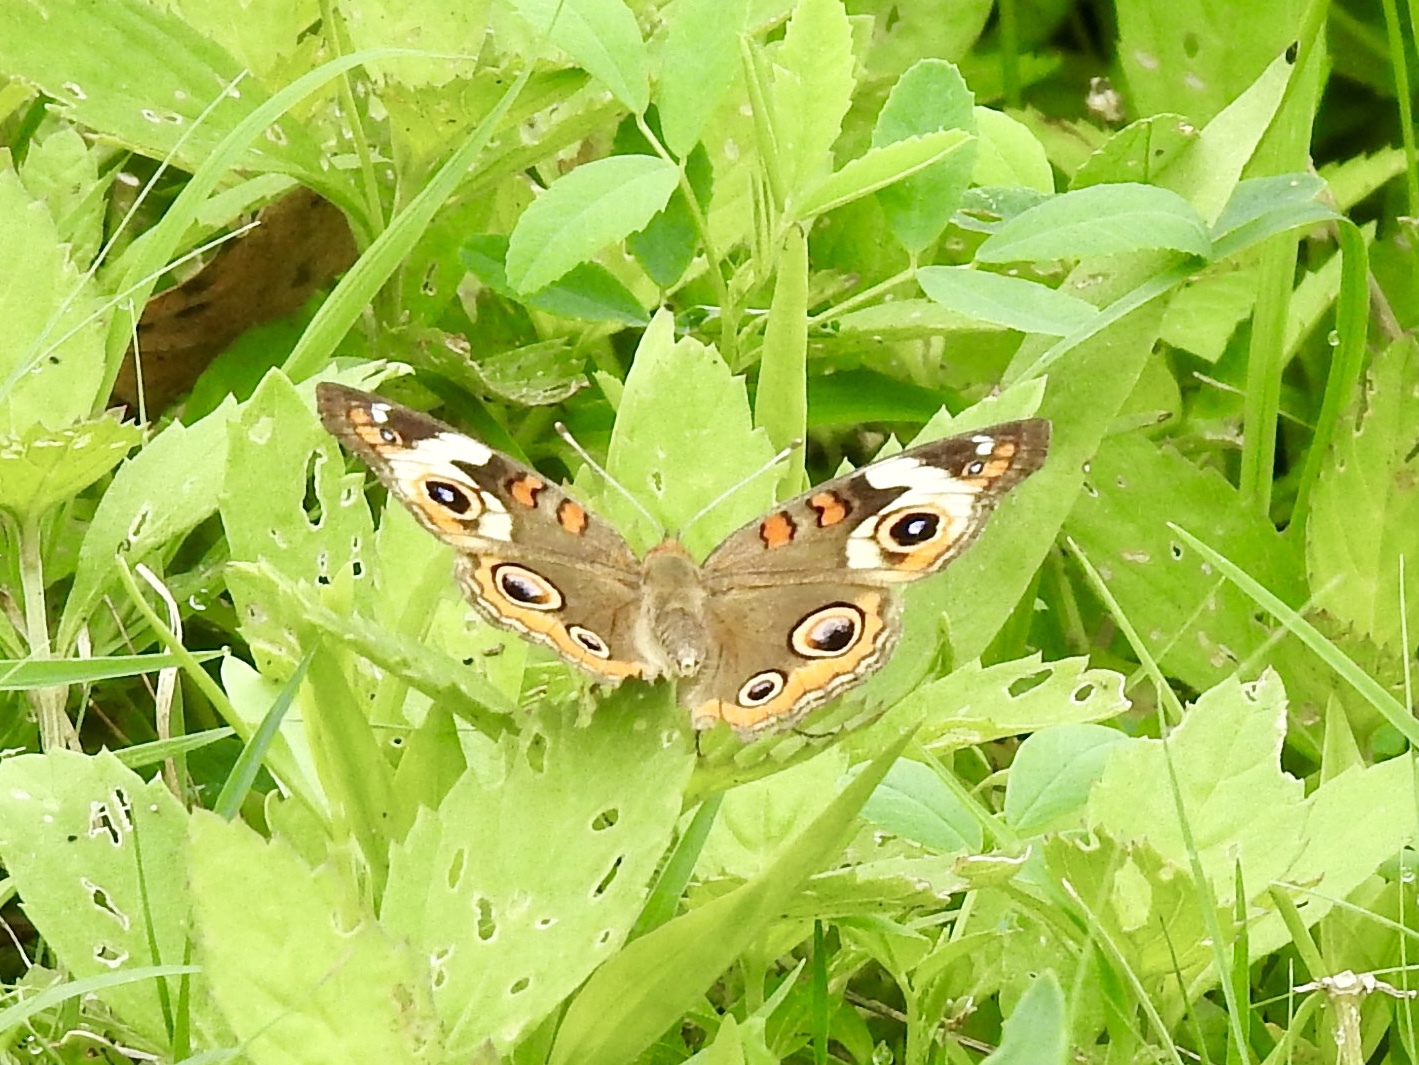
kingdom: Animalia
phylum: Arthropoda
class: Insecta
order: Lepidoptera
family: Nymphalidae
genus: Junonia
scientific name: Junonia coenia
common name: Common buckeye
